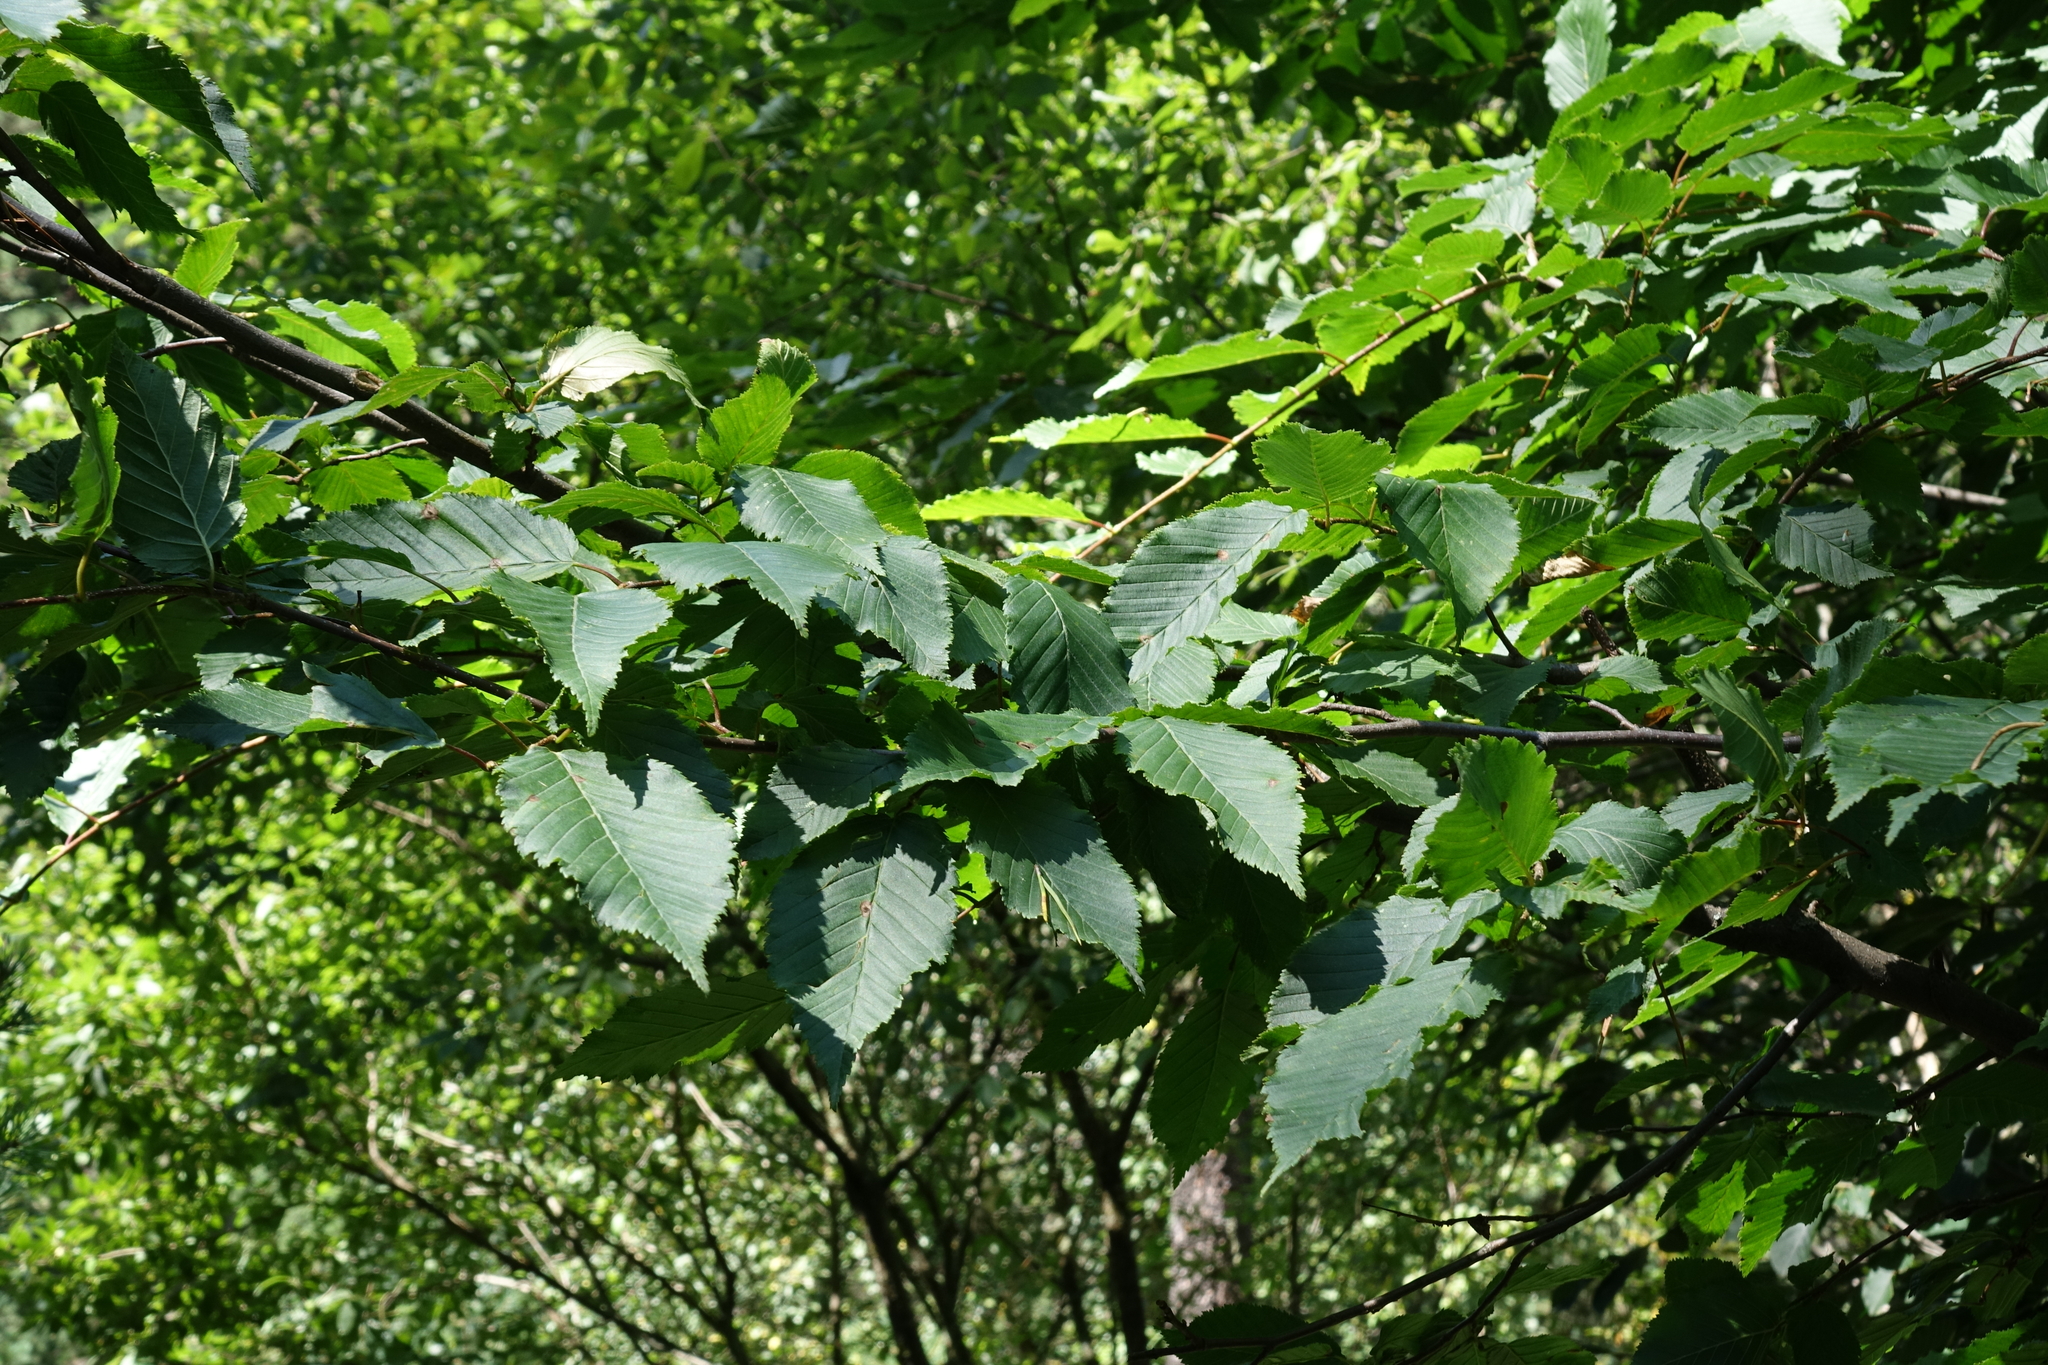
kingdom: Plantae
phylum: Tracheophyta
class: Magnoliopsida
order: Fagales
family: Betulaceae
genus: Carpinus
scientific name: Carpinus betulus
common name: Hornbeam
